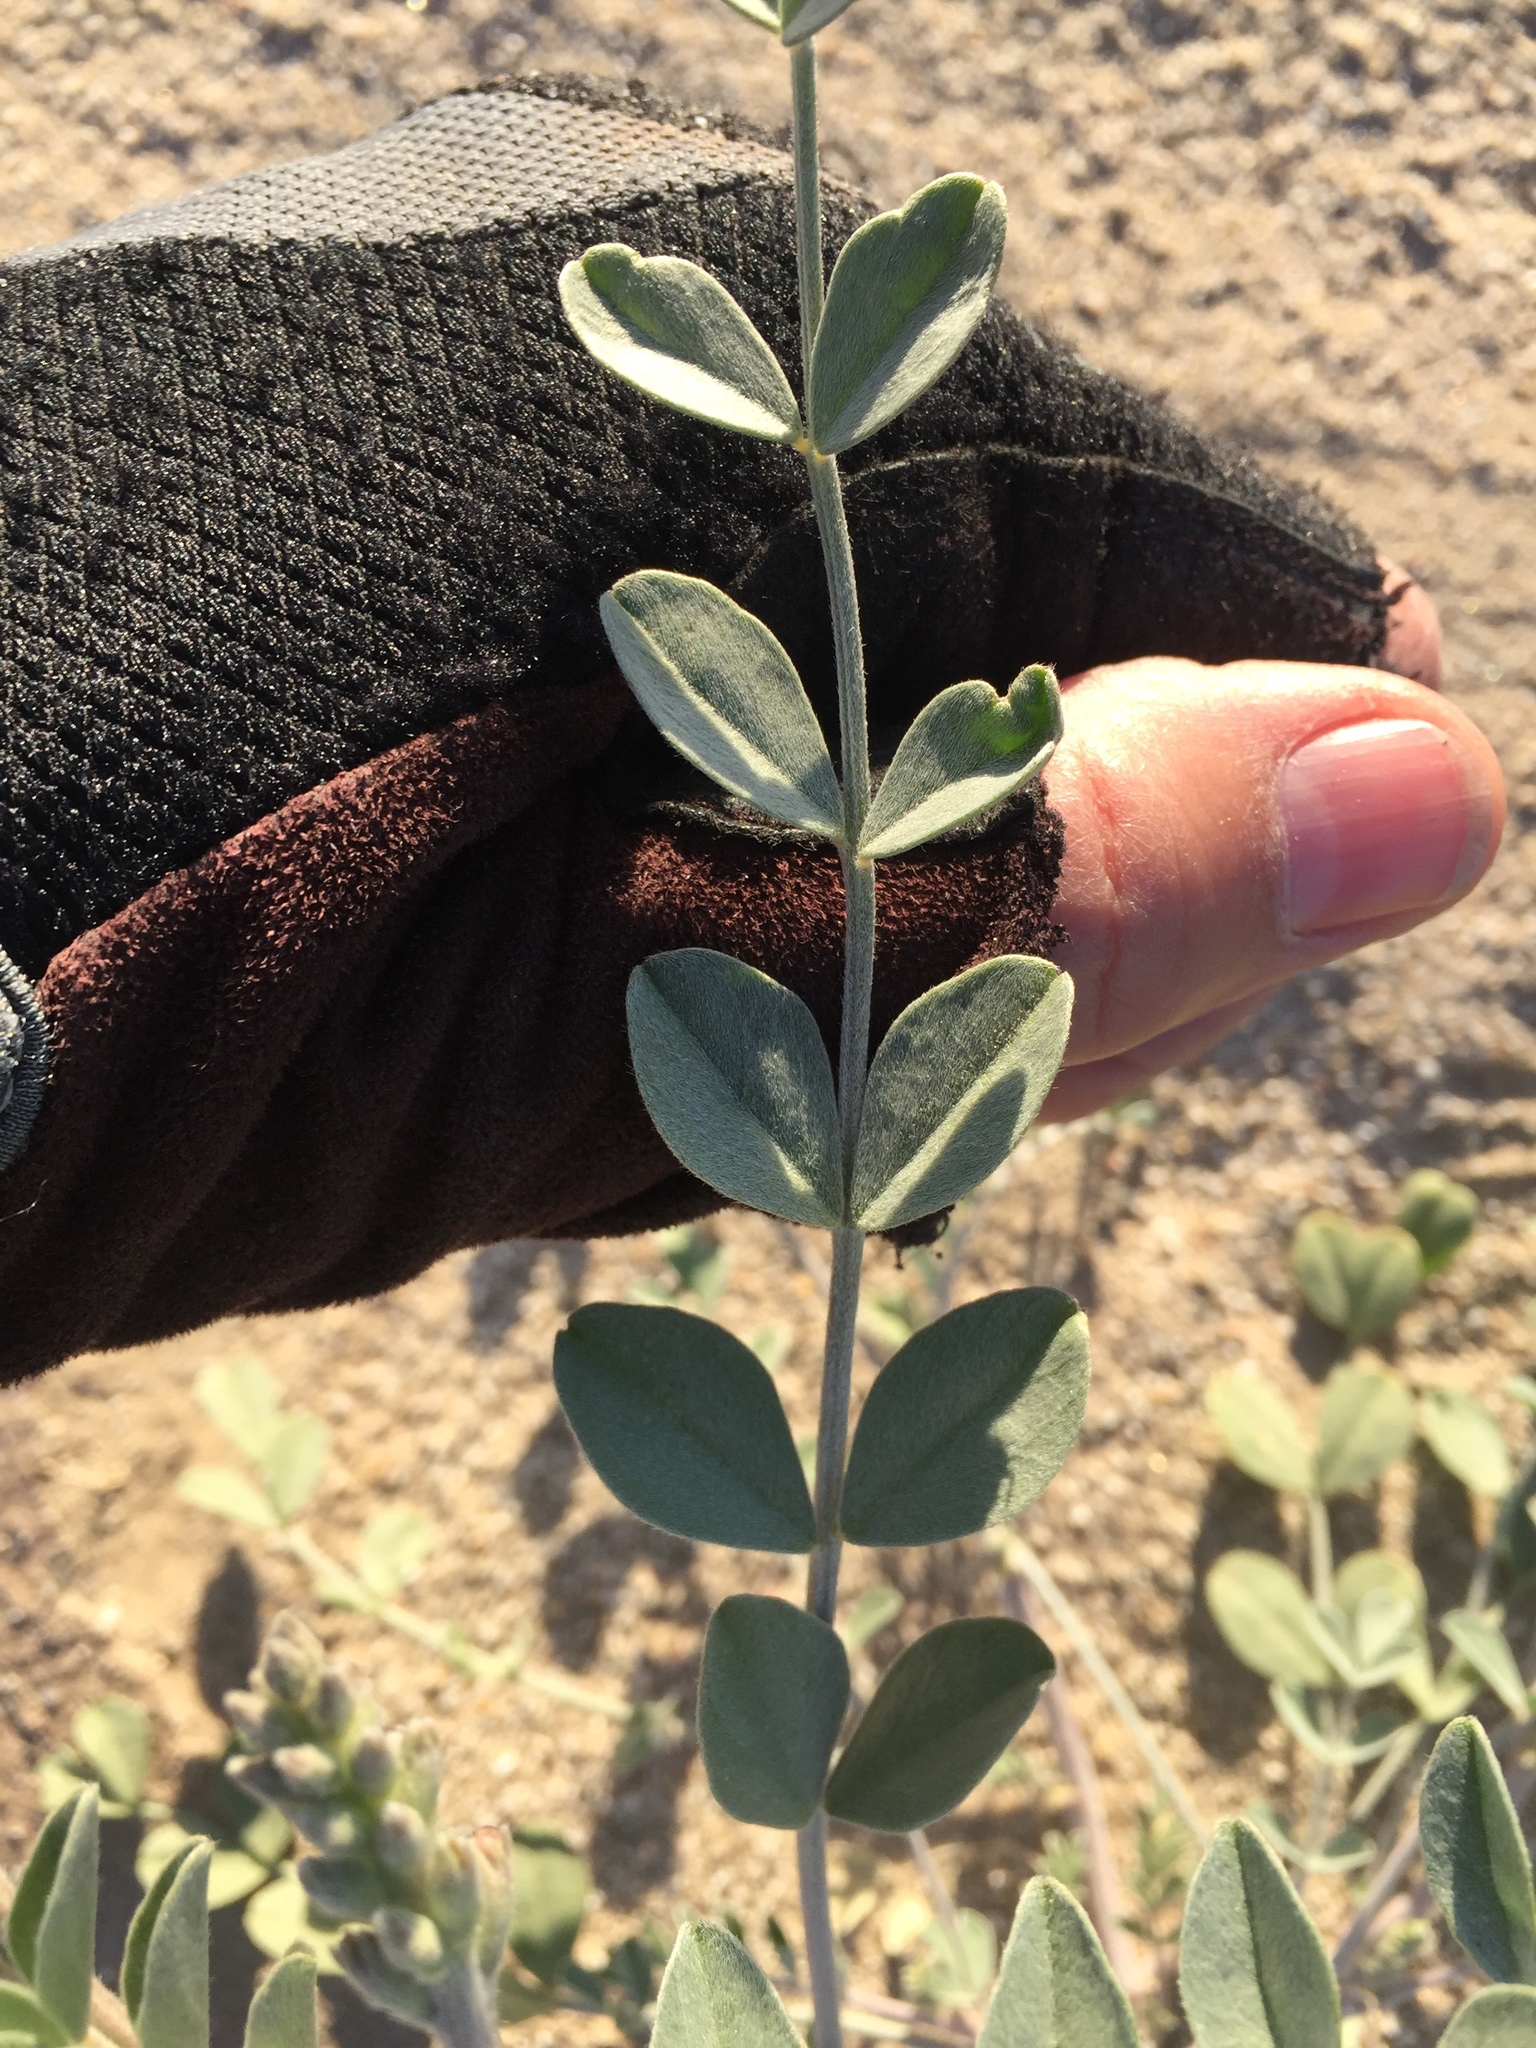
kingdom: Plantae
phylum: Tracheophyta
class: Magnoliopsida
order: Fabales
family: Fabaceae
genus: Astragalus
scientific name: Astragalus lentiginosus
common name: Freckled milkvetch
